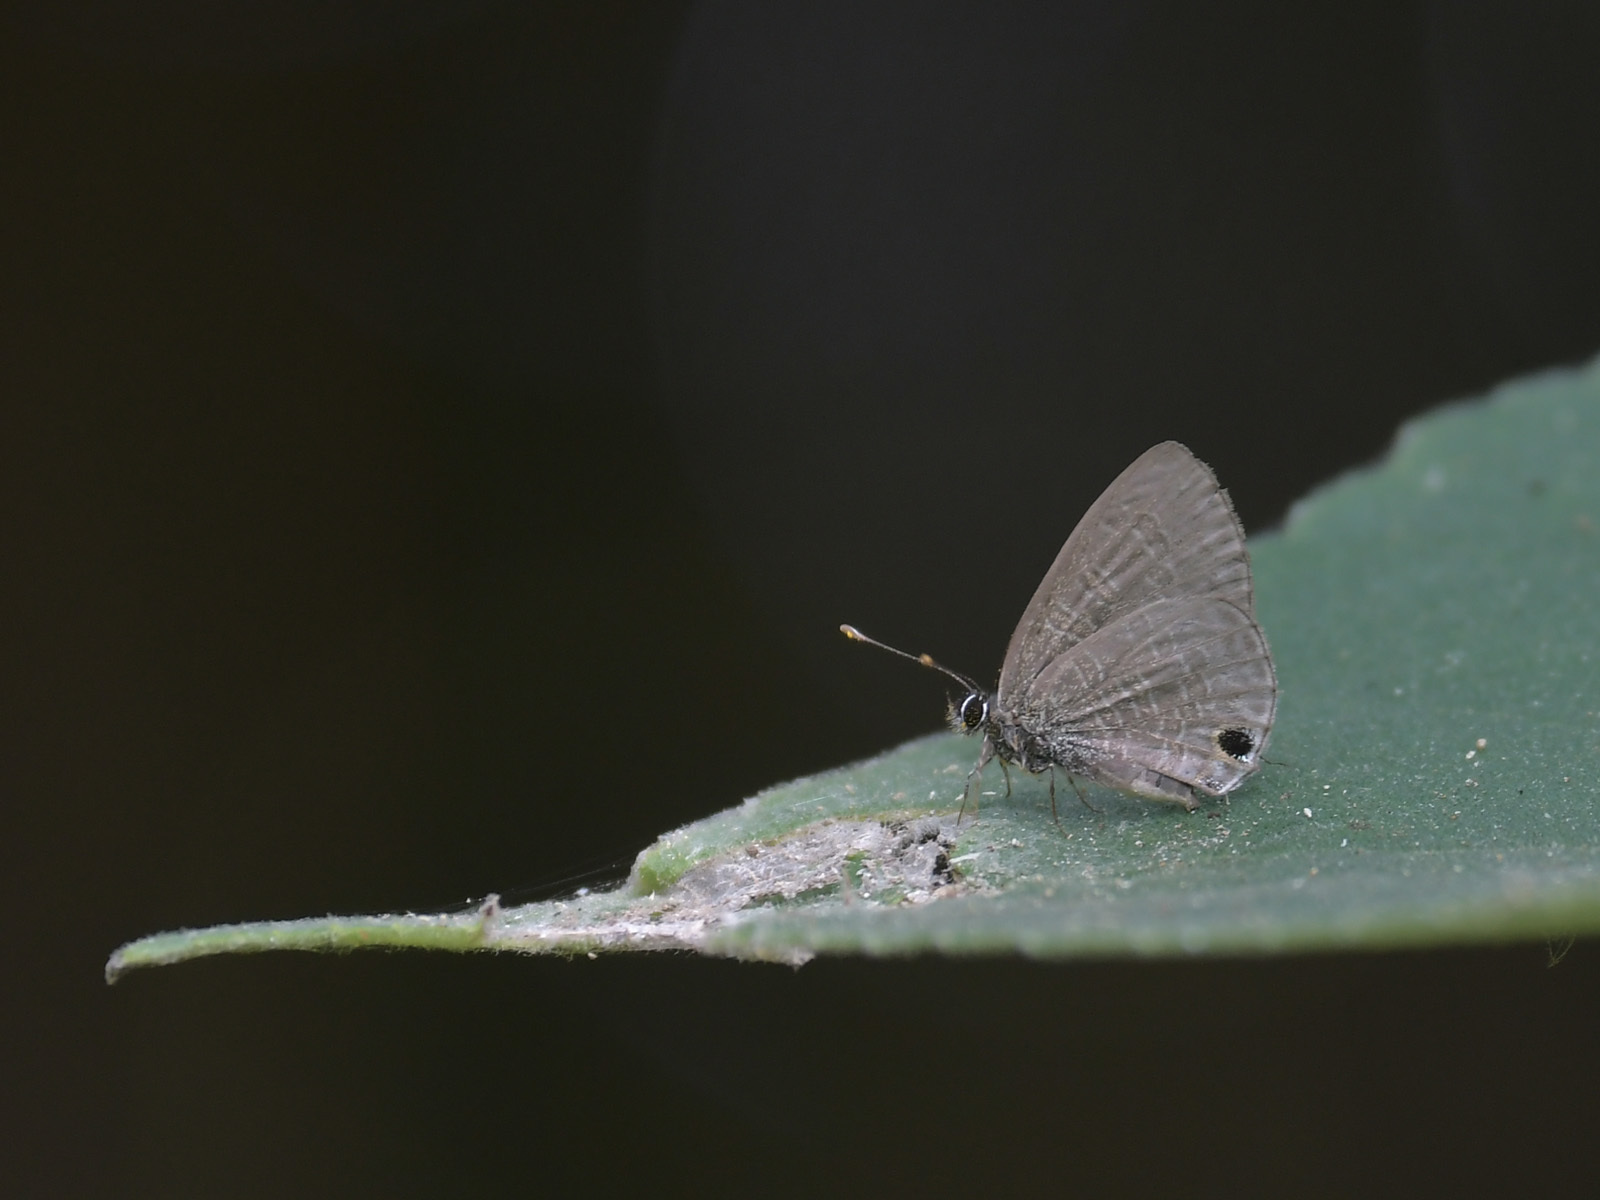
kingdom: Animalia
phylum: Arthropoda
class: Insecta
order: Lepidoptera
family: Lycaenidae
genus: Prosotas
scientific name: Prosotas nora
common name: Common line blue
